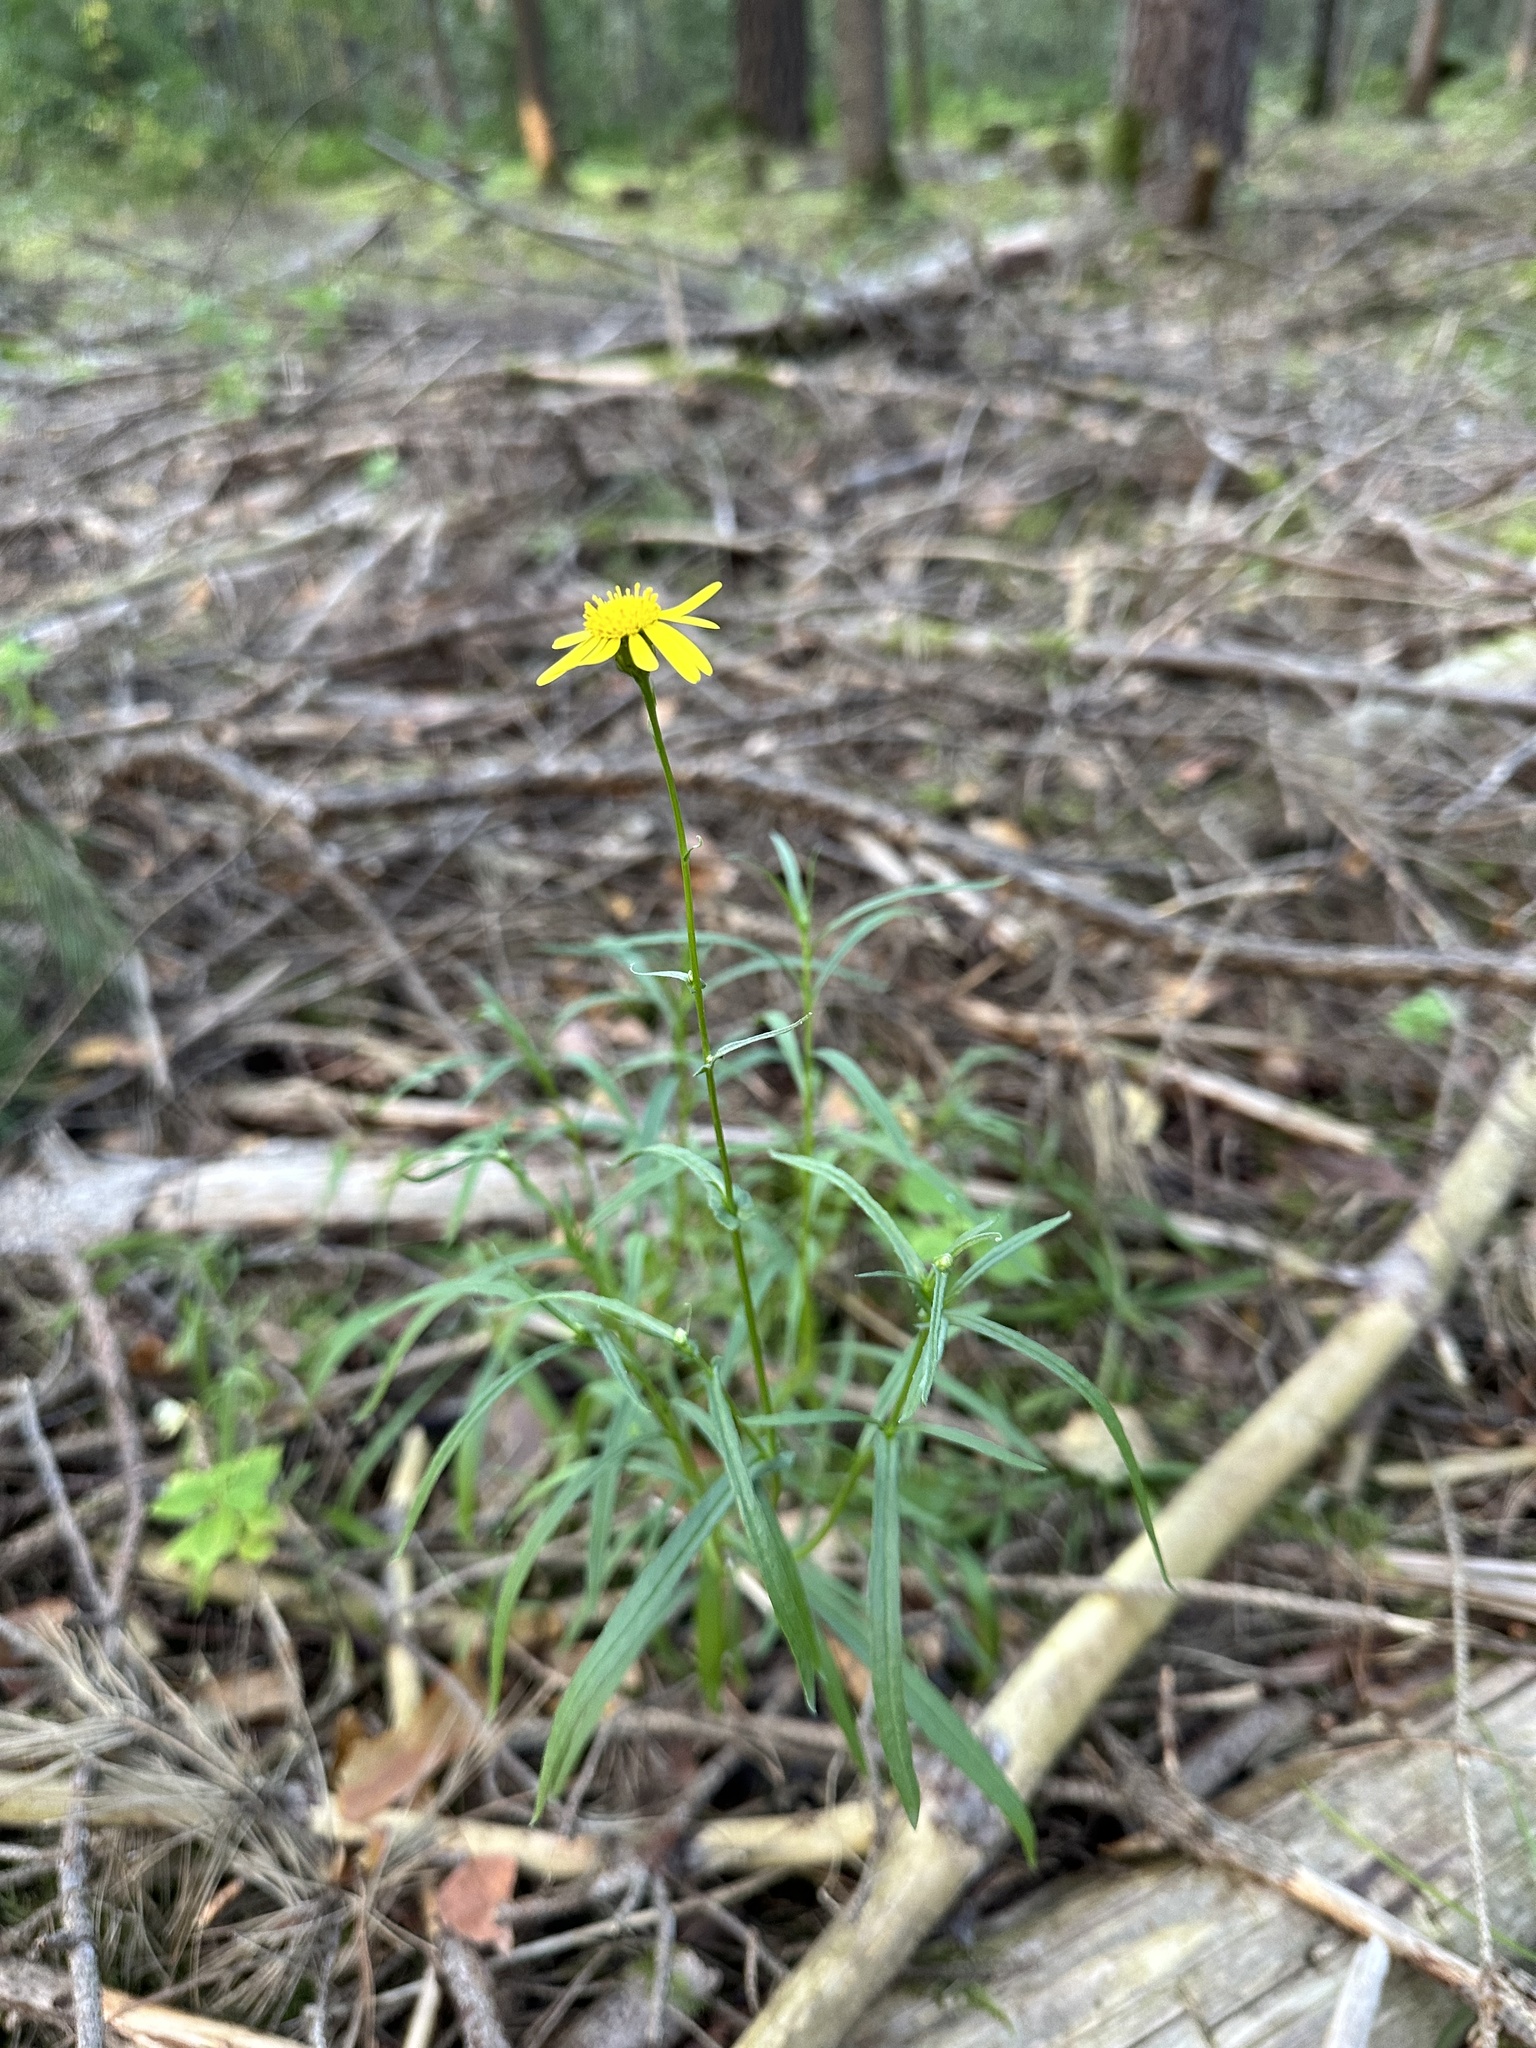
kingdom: Plantae
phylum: Tracheophyta
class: Magnoliopsida
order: Asterales
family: Asteraceae
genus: Senecio
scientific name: Senecio inaequidens
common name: Narrow-leaved ragwort
